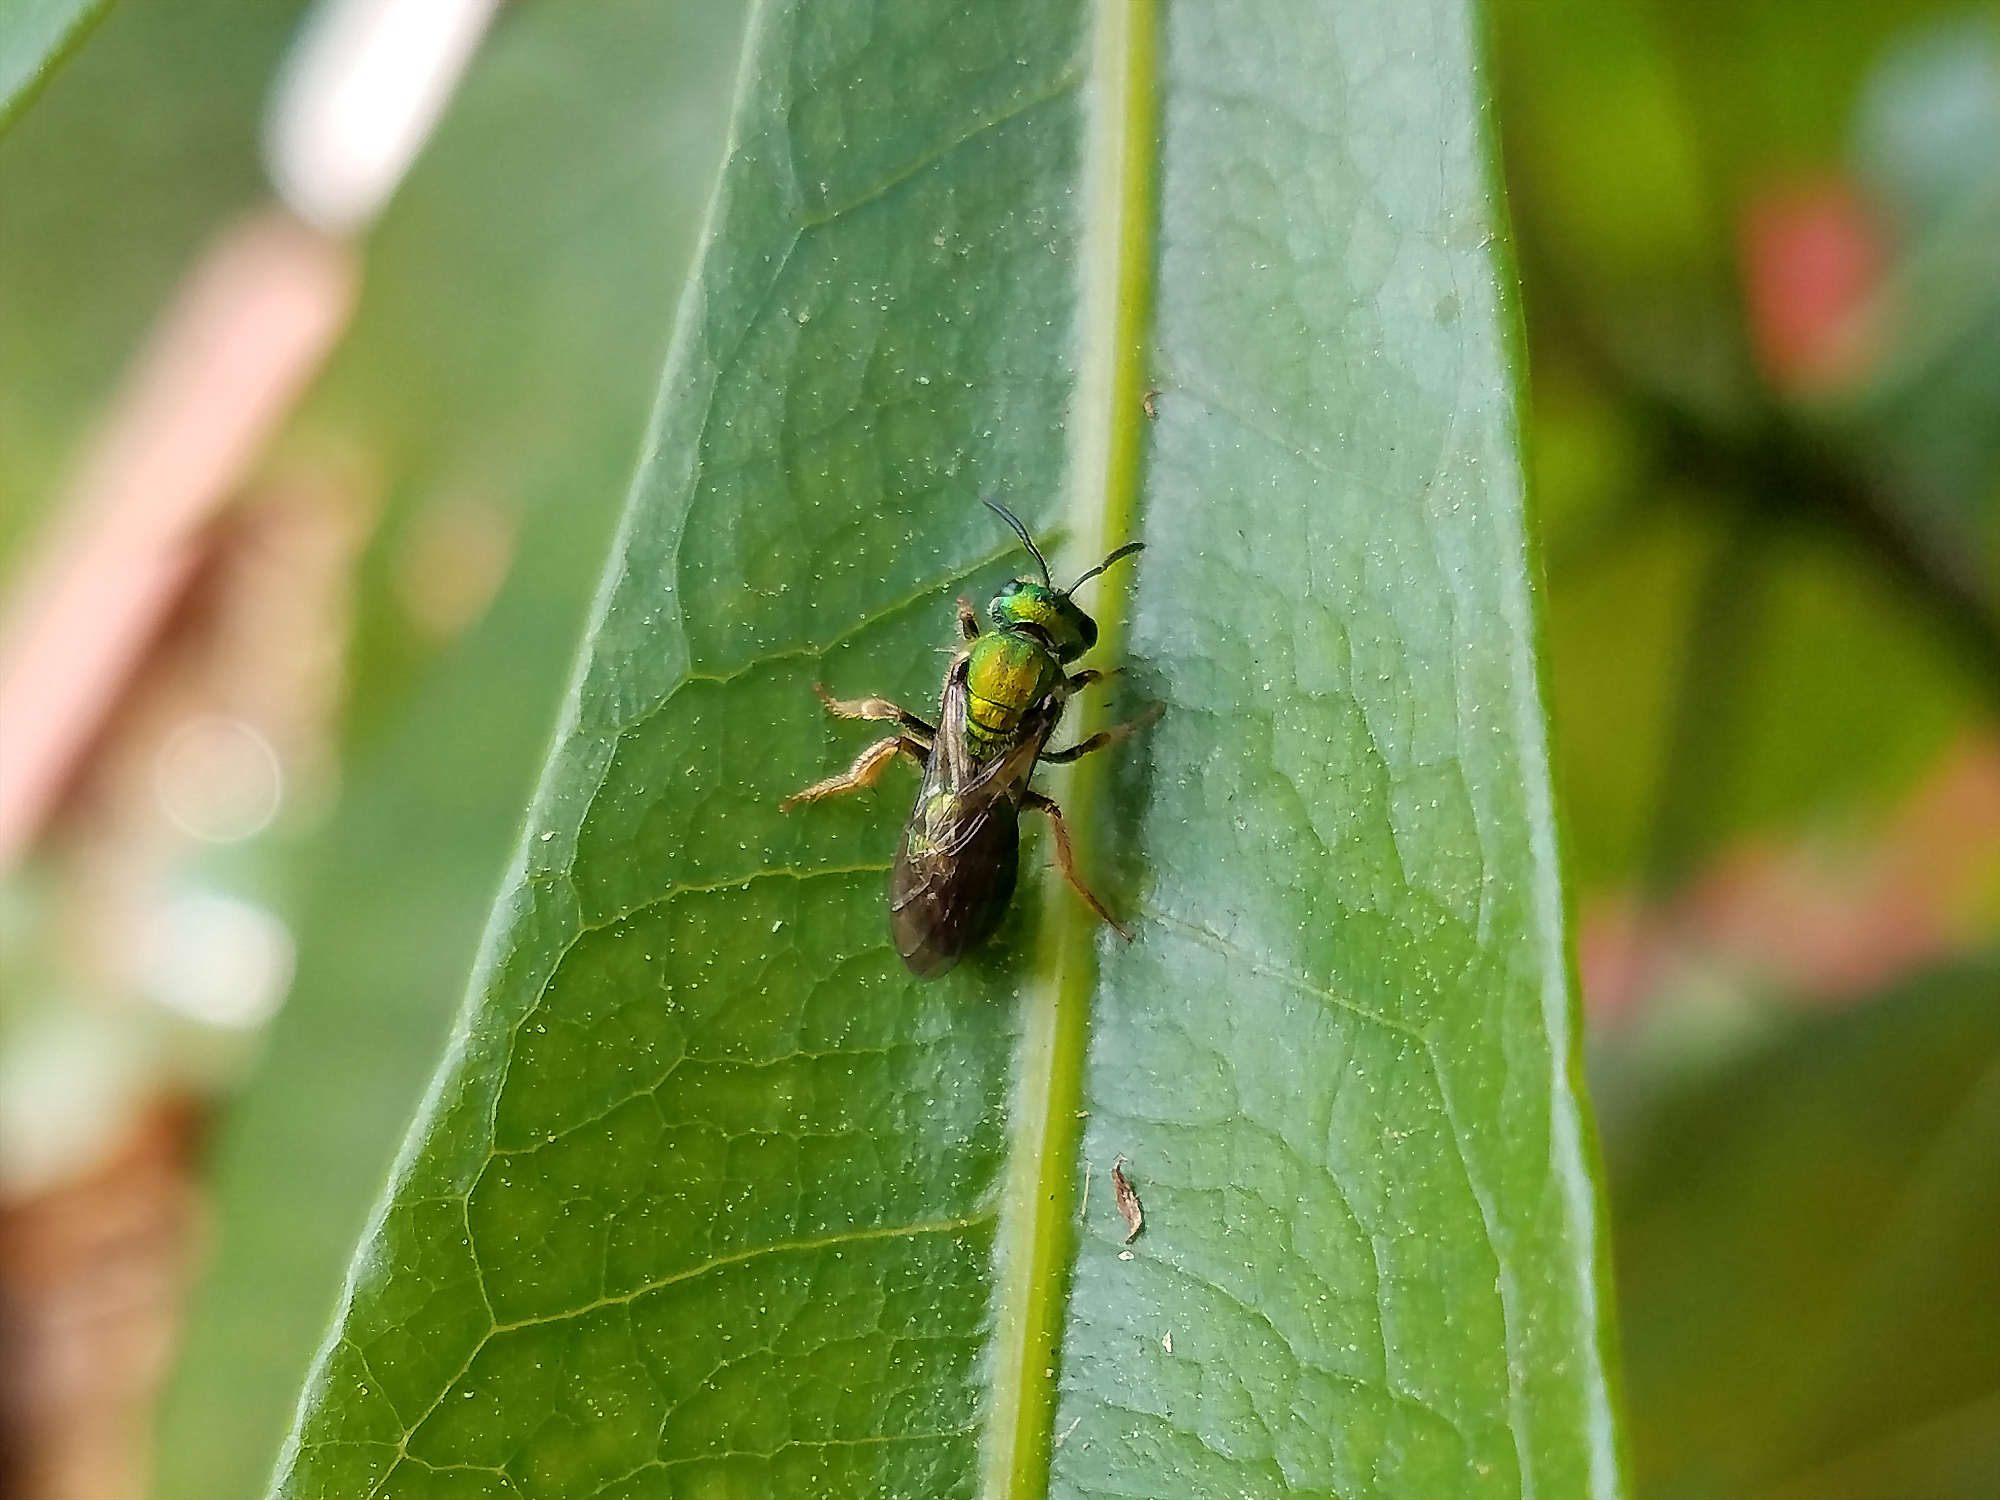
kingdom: Animalia
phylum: Arthropoda
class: Insecta
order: Hymenoptera
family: Halictidae
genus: Augochlora
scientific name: Augochlora pura
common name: Pure green sweat bee
